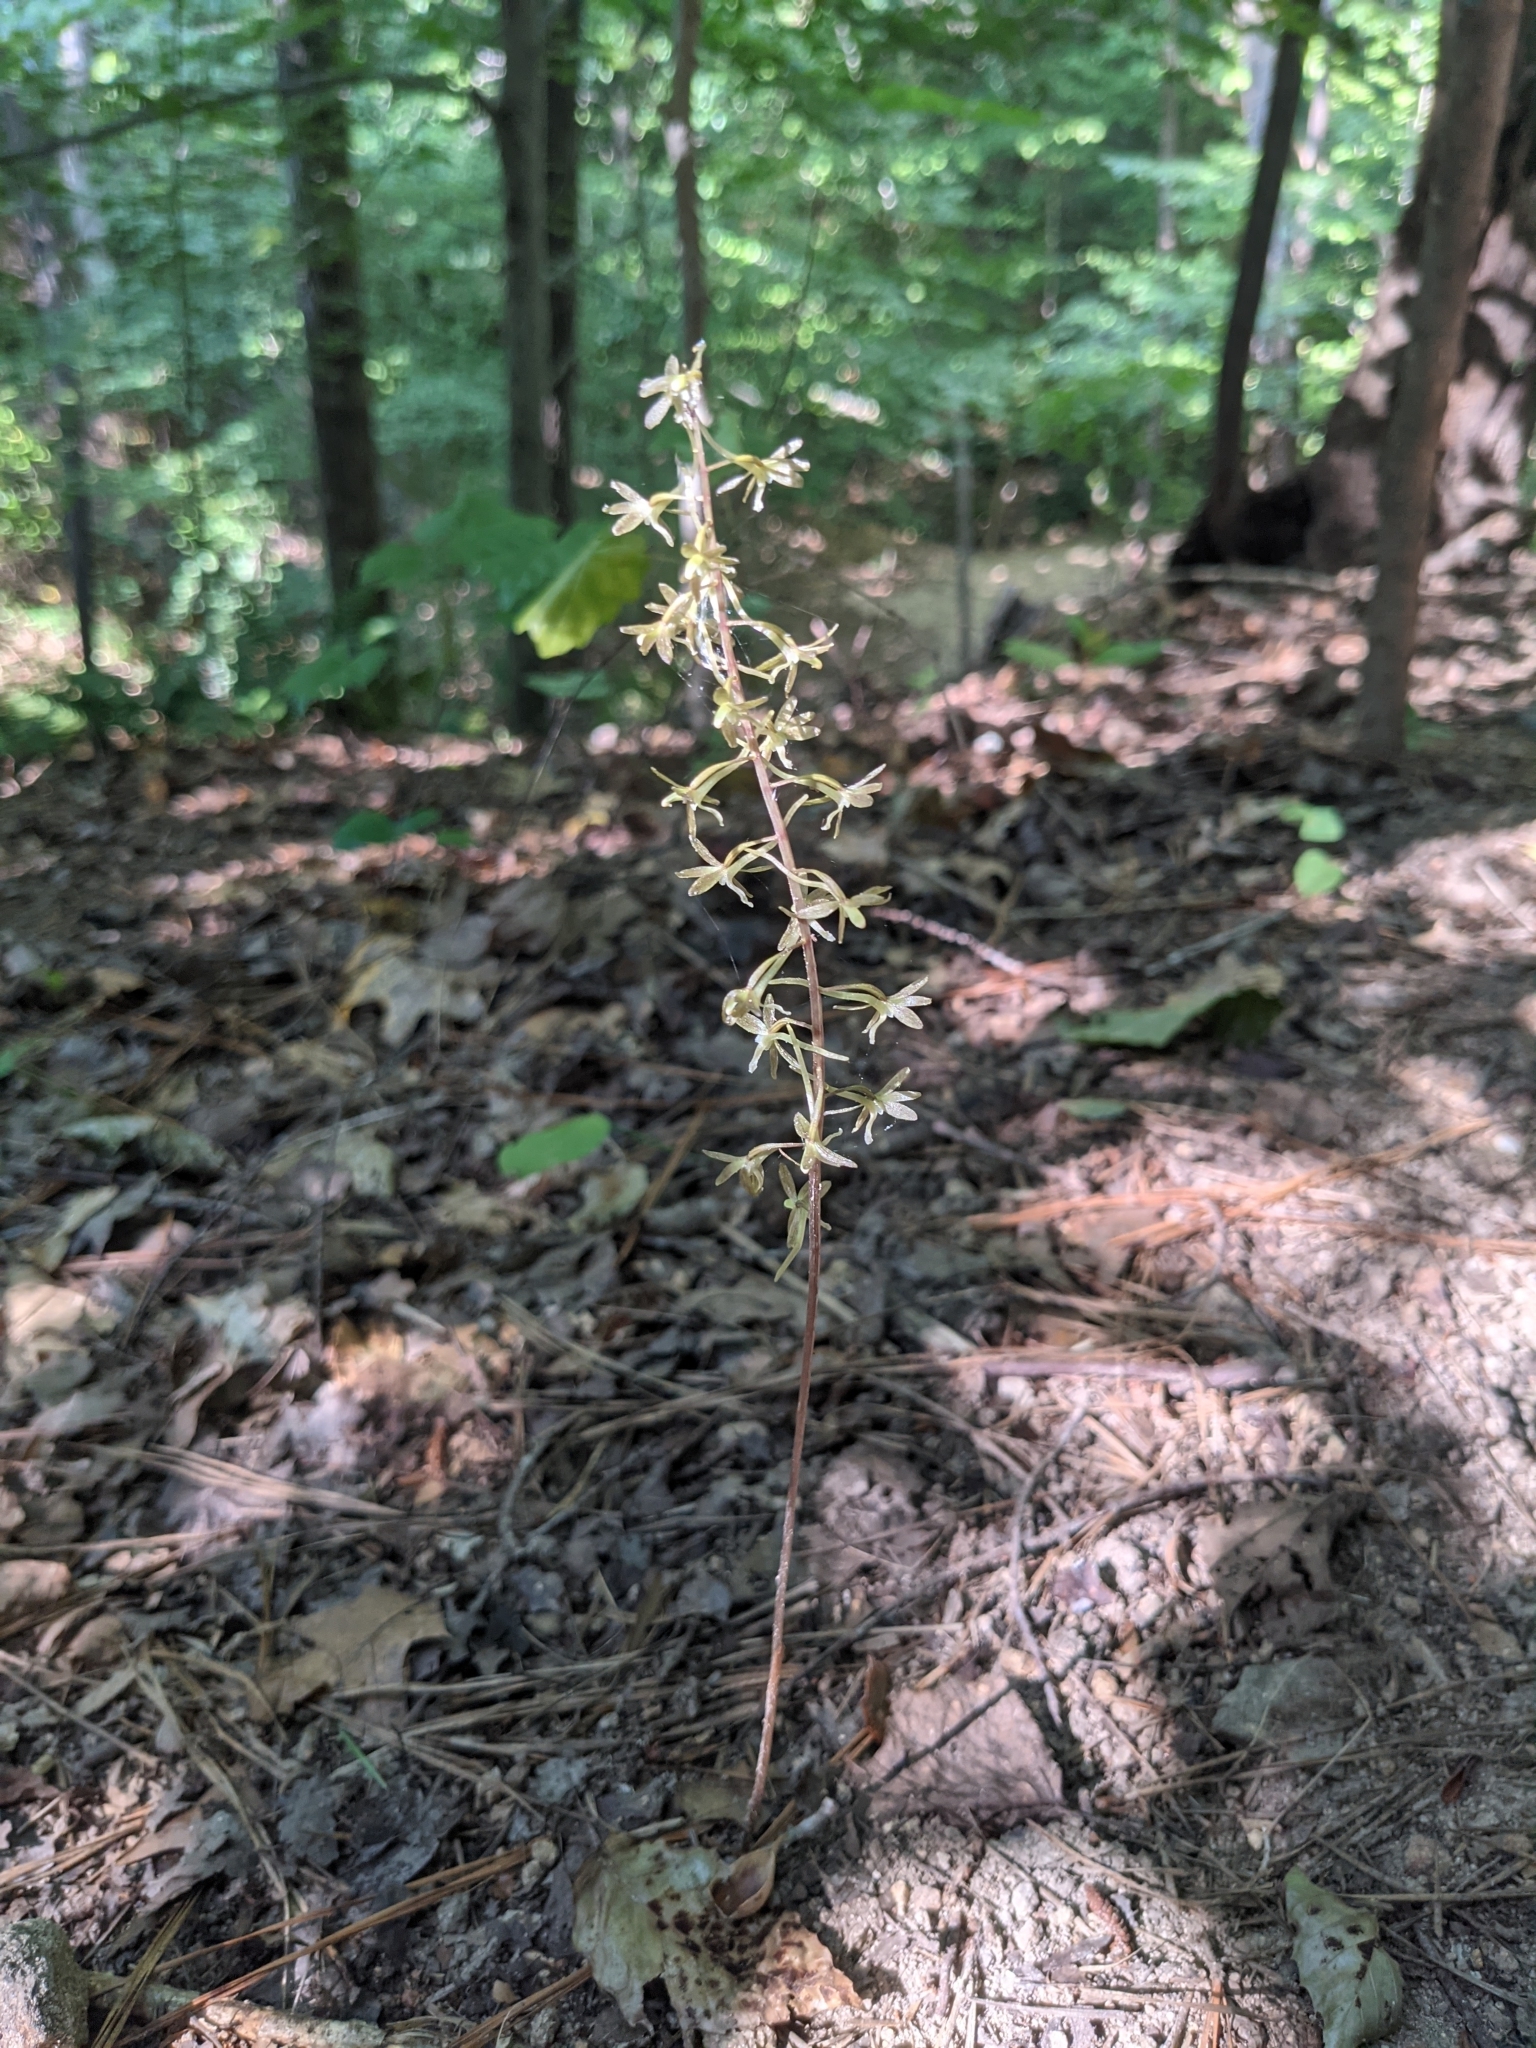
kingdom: Plantae
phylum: Tracheophyta
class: Liliopsida
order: Asparagales
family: Orchidaceae
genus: Tipularia
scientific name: Tipularia discolor
